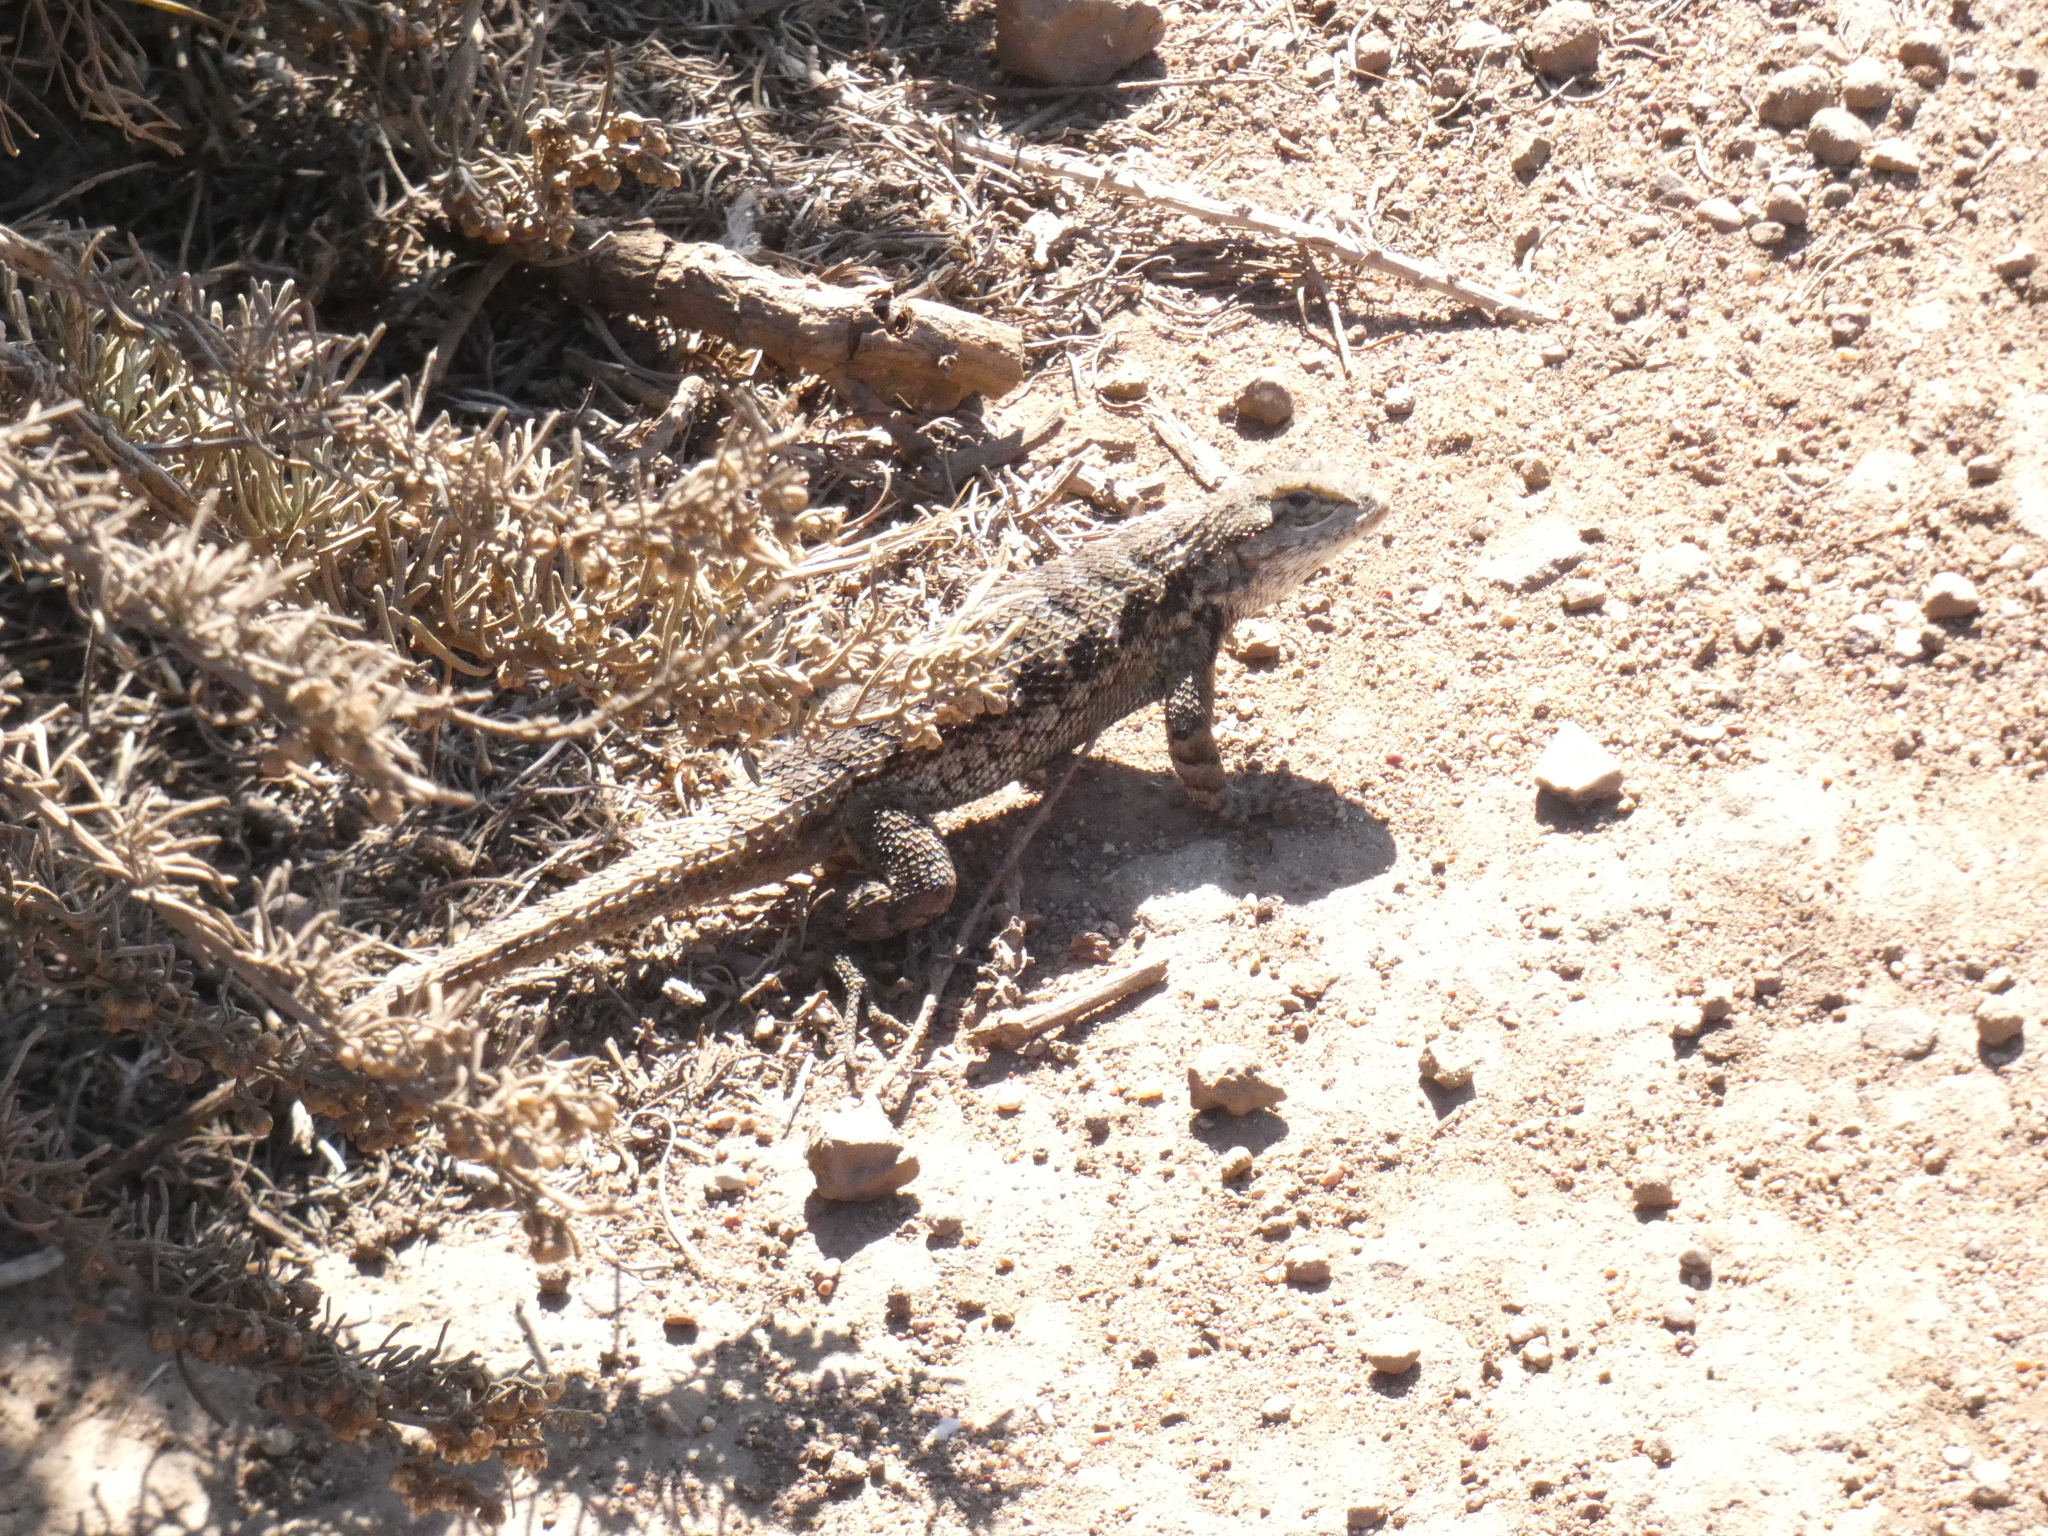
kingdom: Animalia
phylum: Chordata
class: Squamata
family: Phrynosomatidae
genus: Sceloporus
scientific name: Sceloporus occidentalis
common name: Western fence lizard
